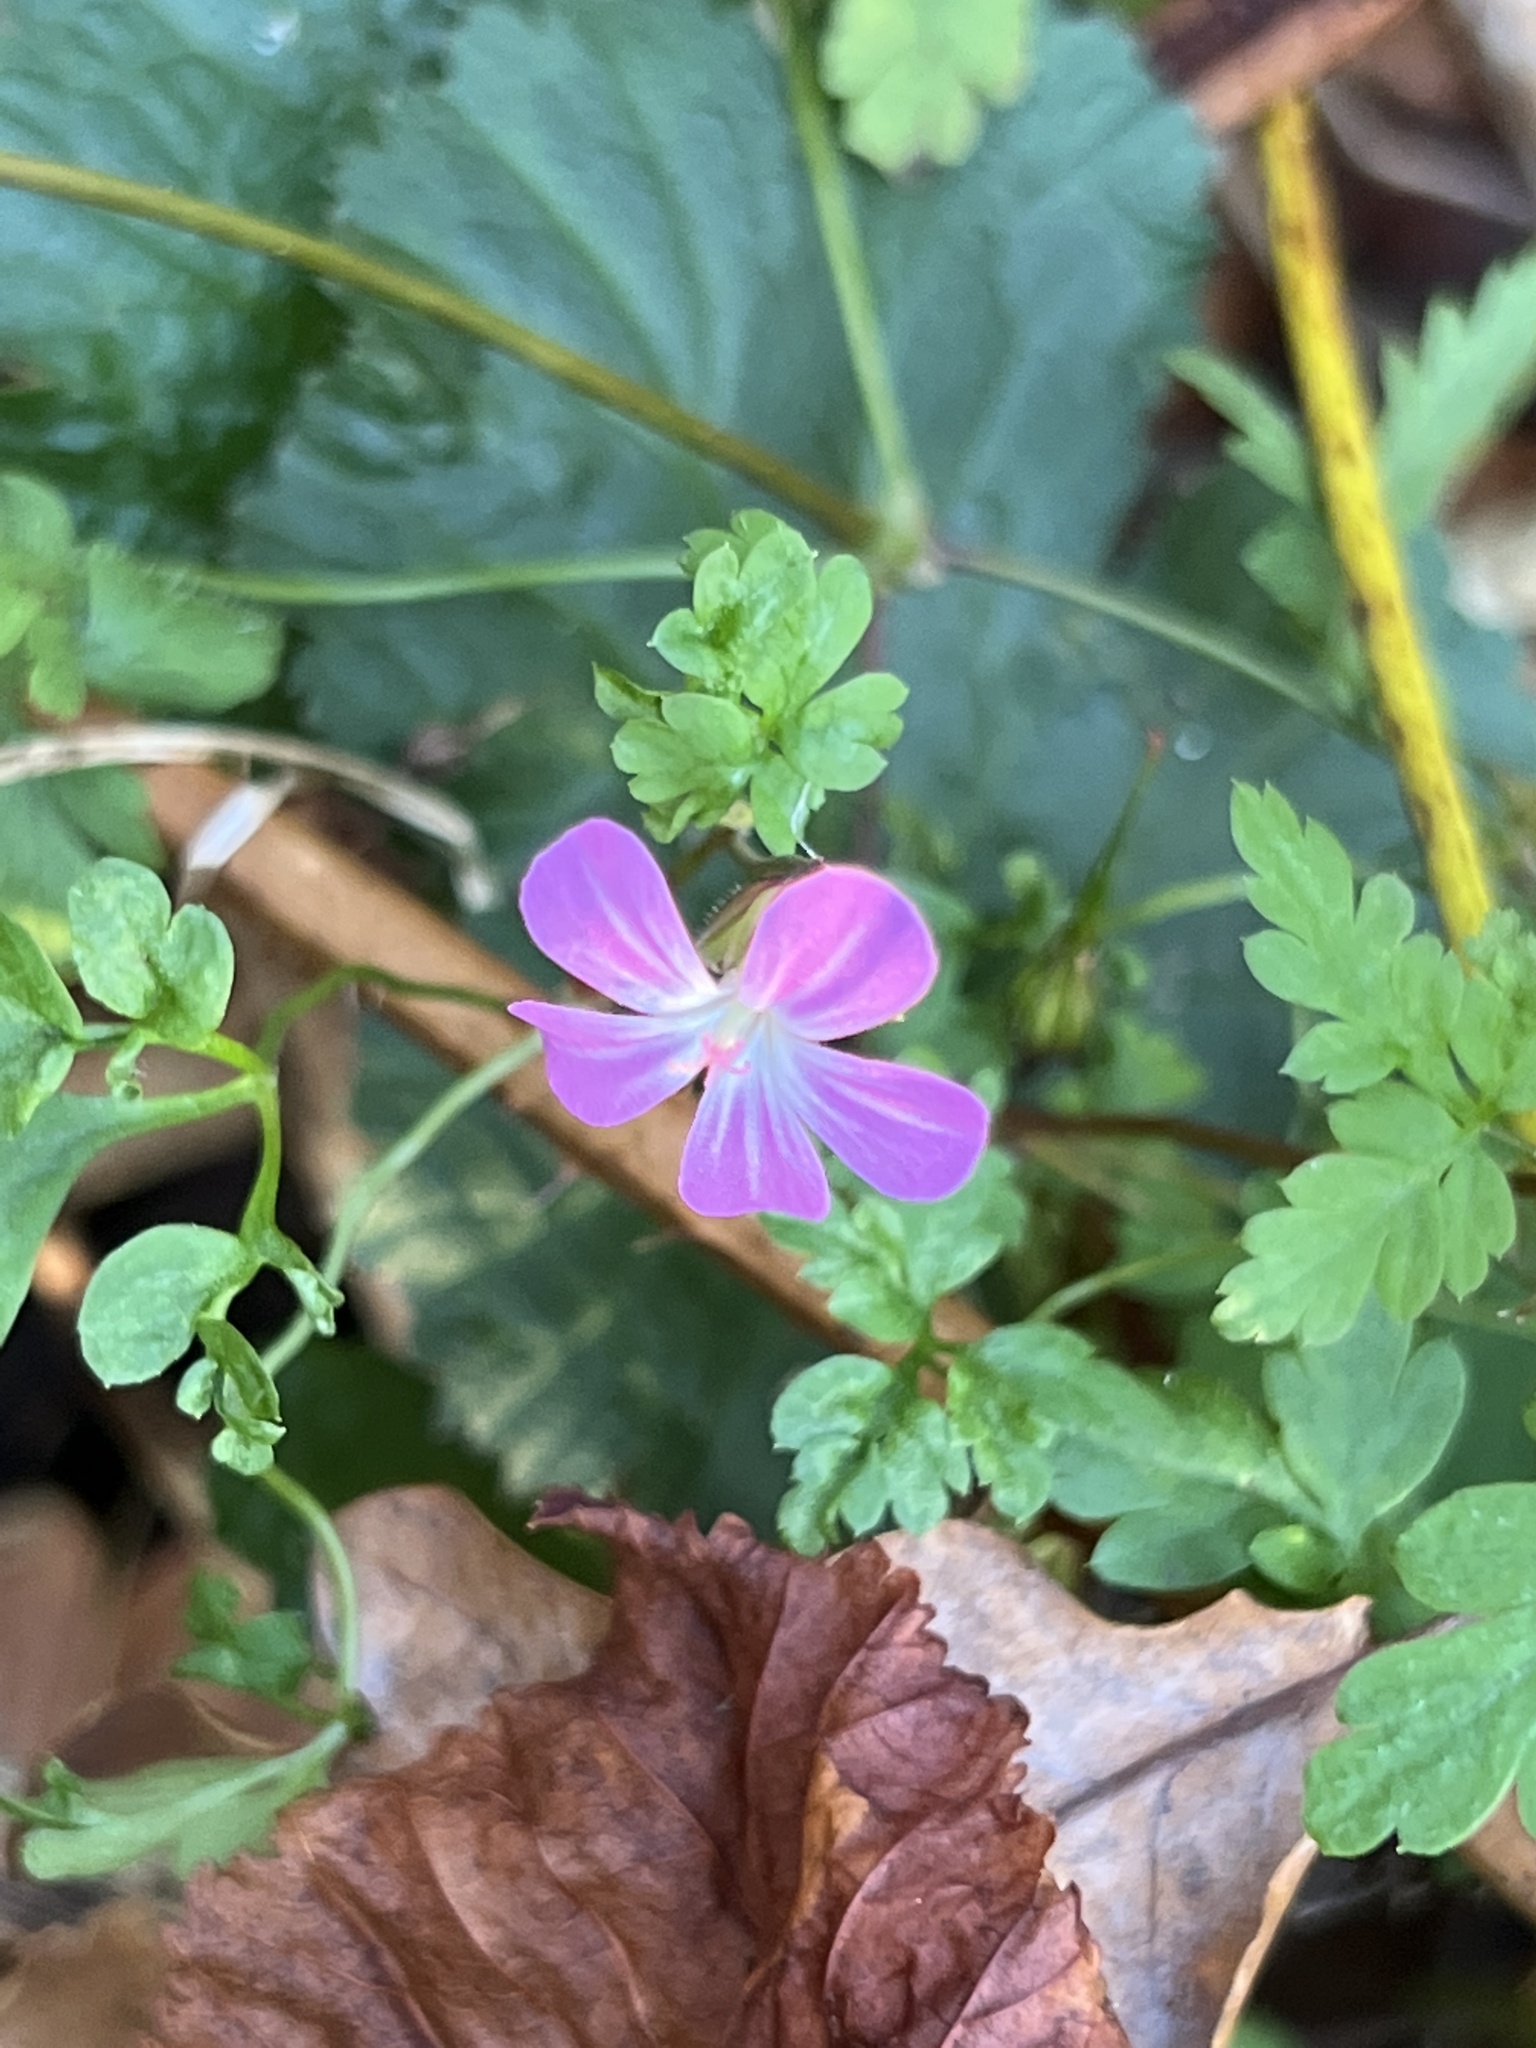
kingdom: Plantae
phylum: Tracheophyta
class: Magnoliopsida
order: Geraniales
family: Geraniaceae
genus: Geranium
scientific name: Geranium robertianum
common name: Herb-robert
